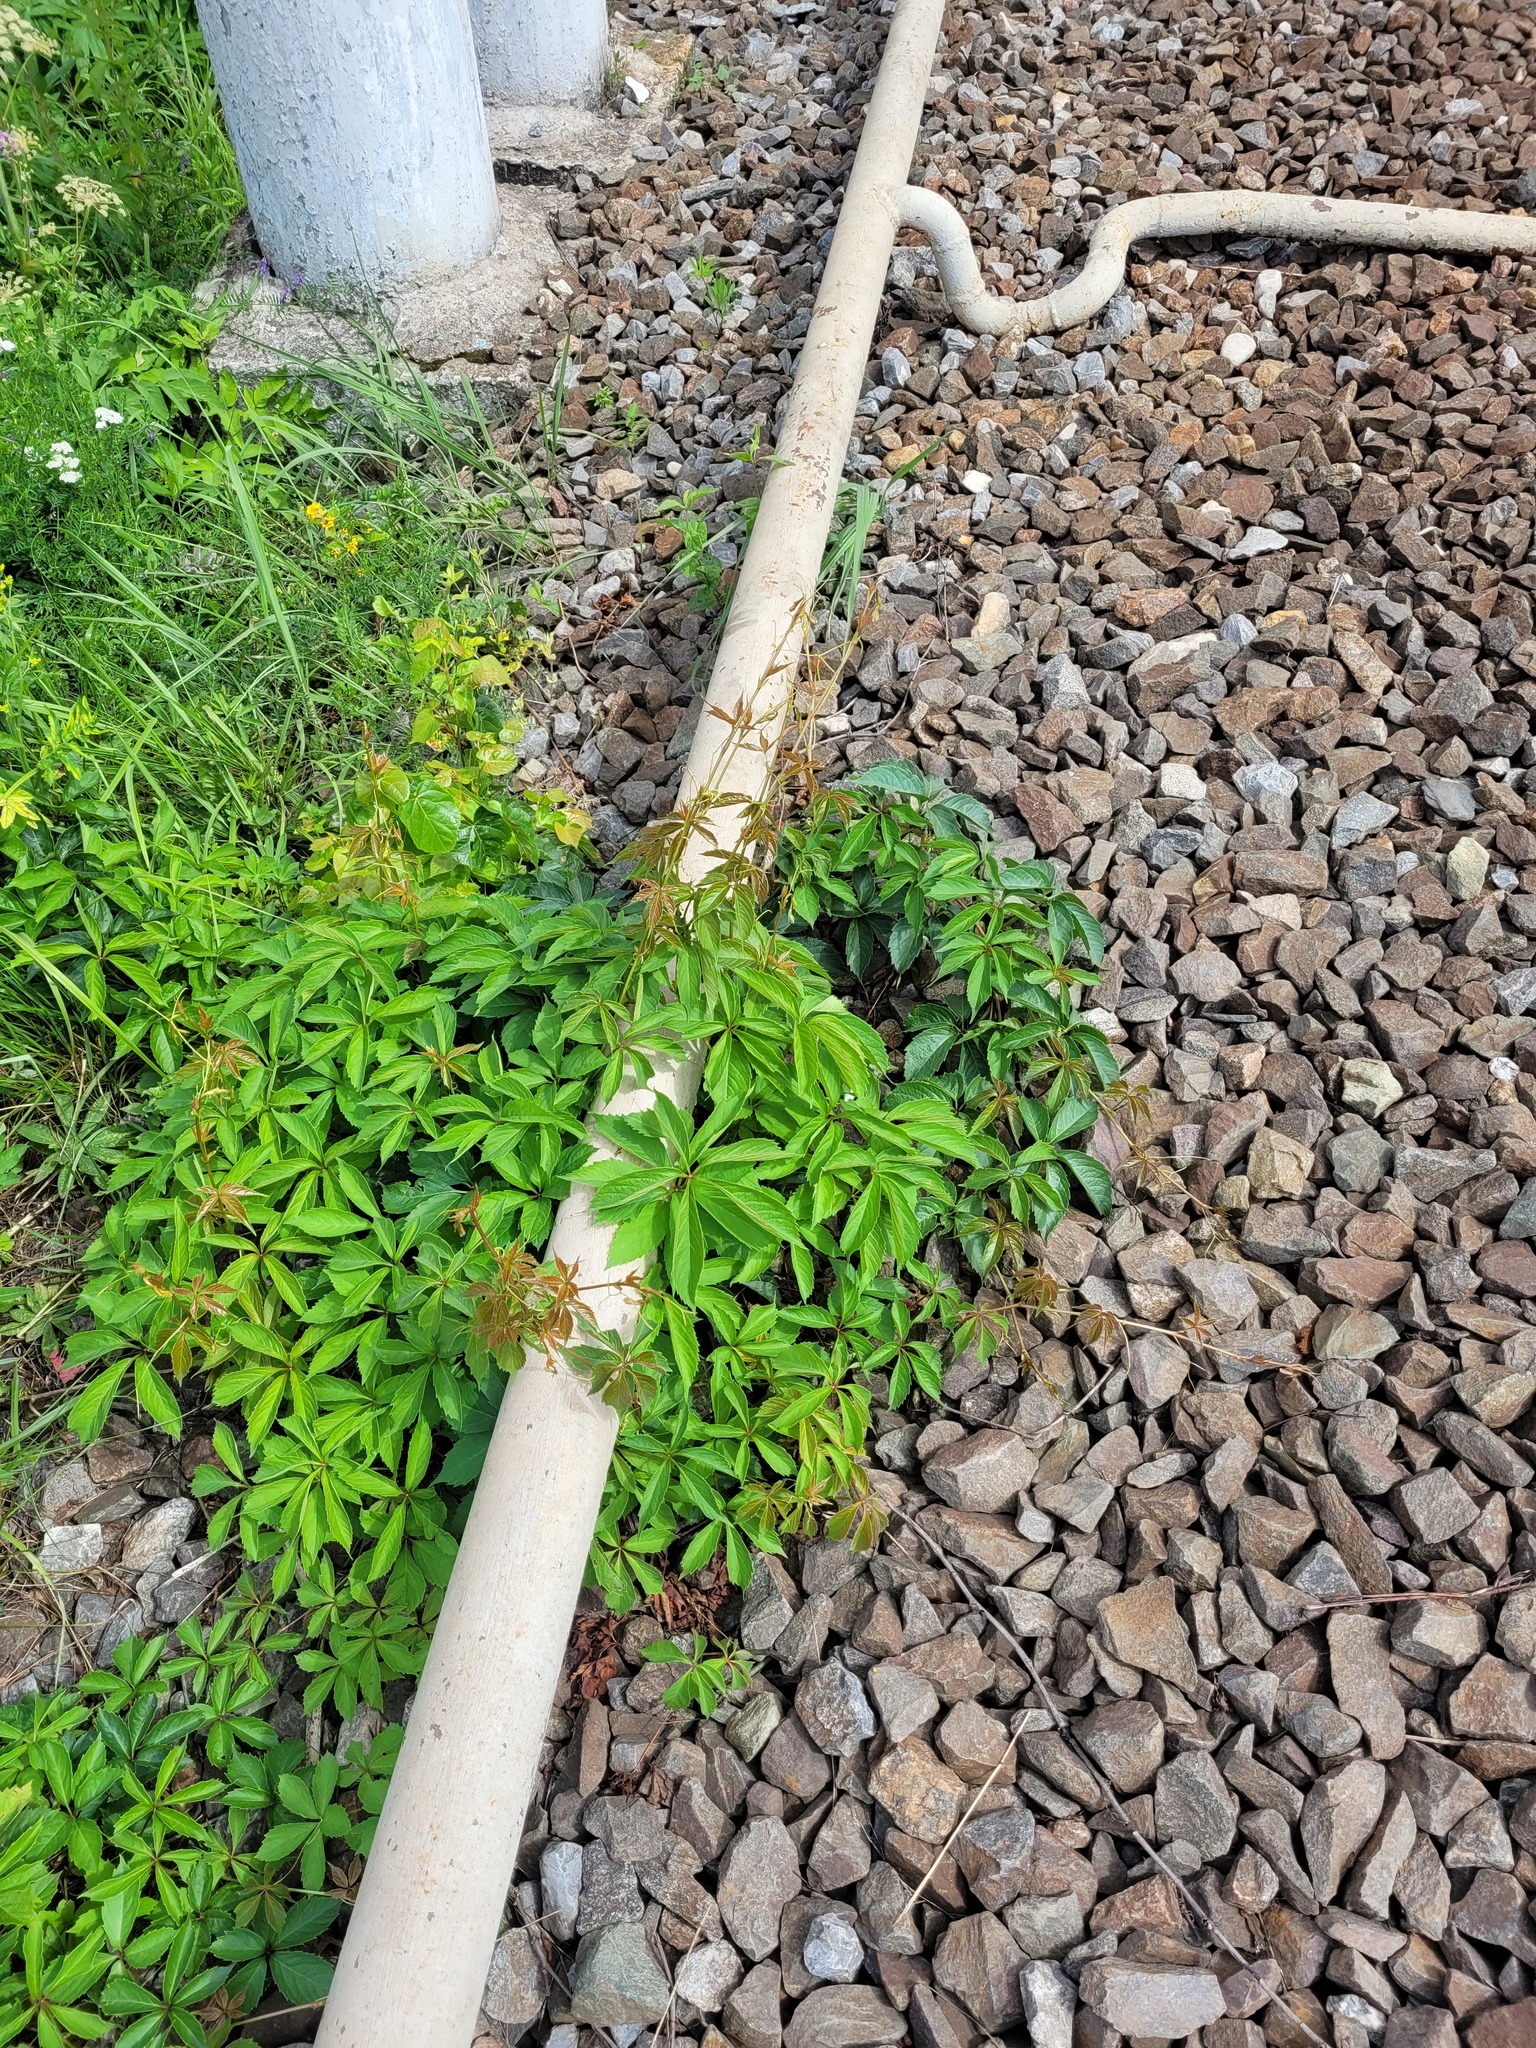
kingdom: Plantae
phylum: Tracheophyta
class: Magnoliopsida
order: Vitales
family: Vitaceae
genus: Parthenocissus
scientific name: Parthenocissus inserta
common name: False virginia-creeper
